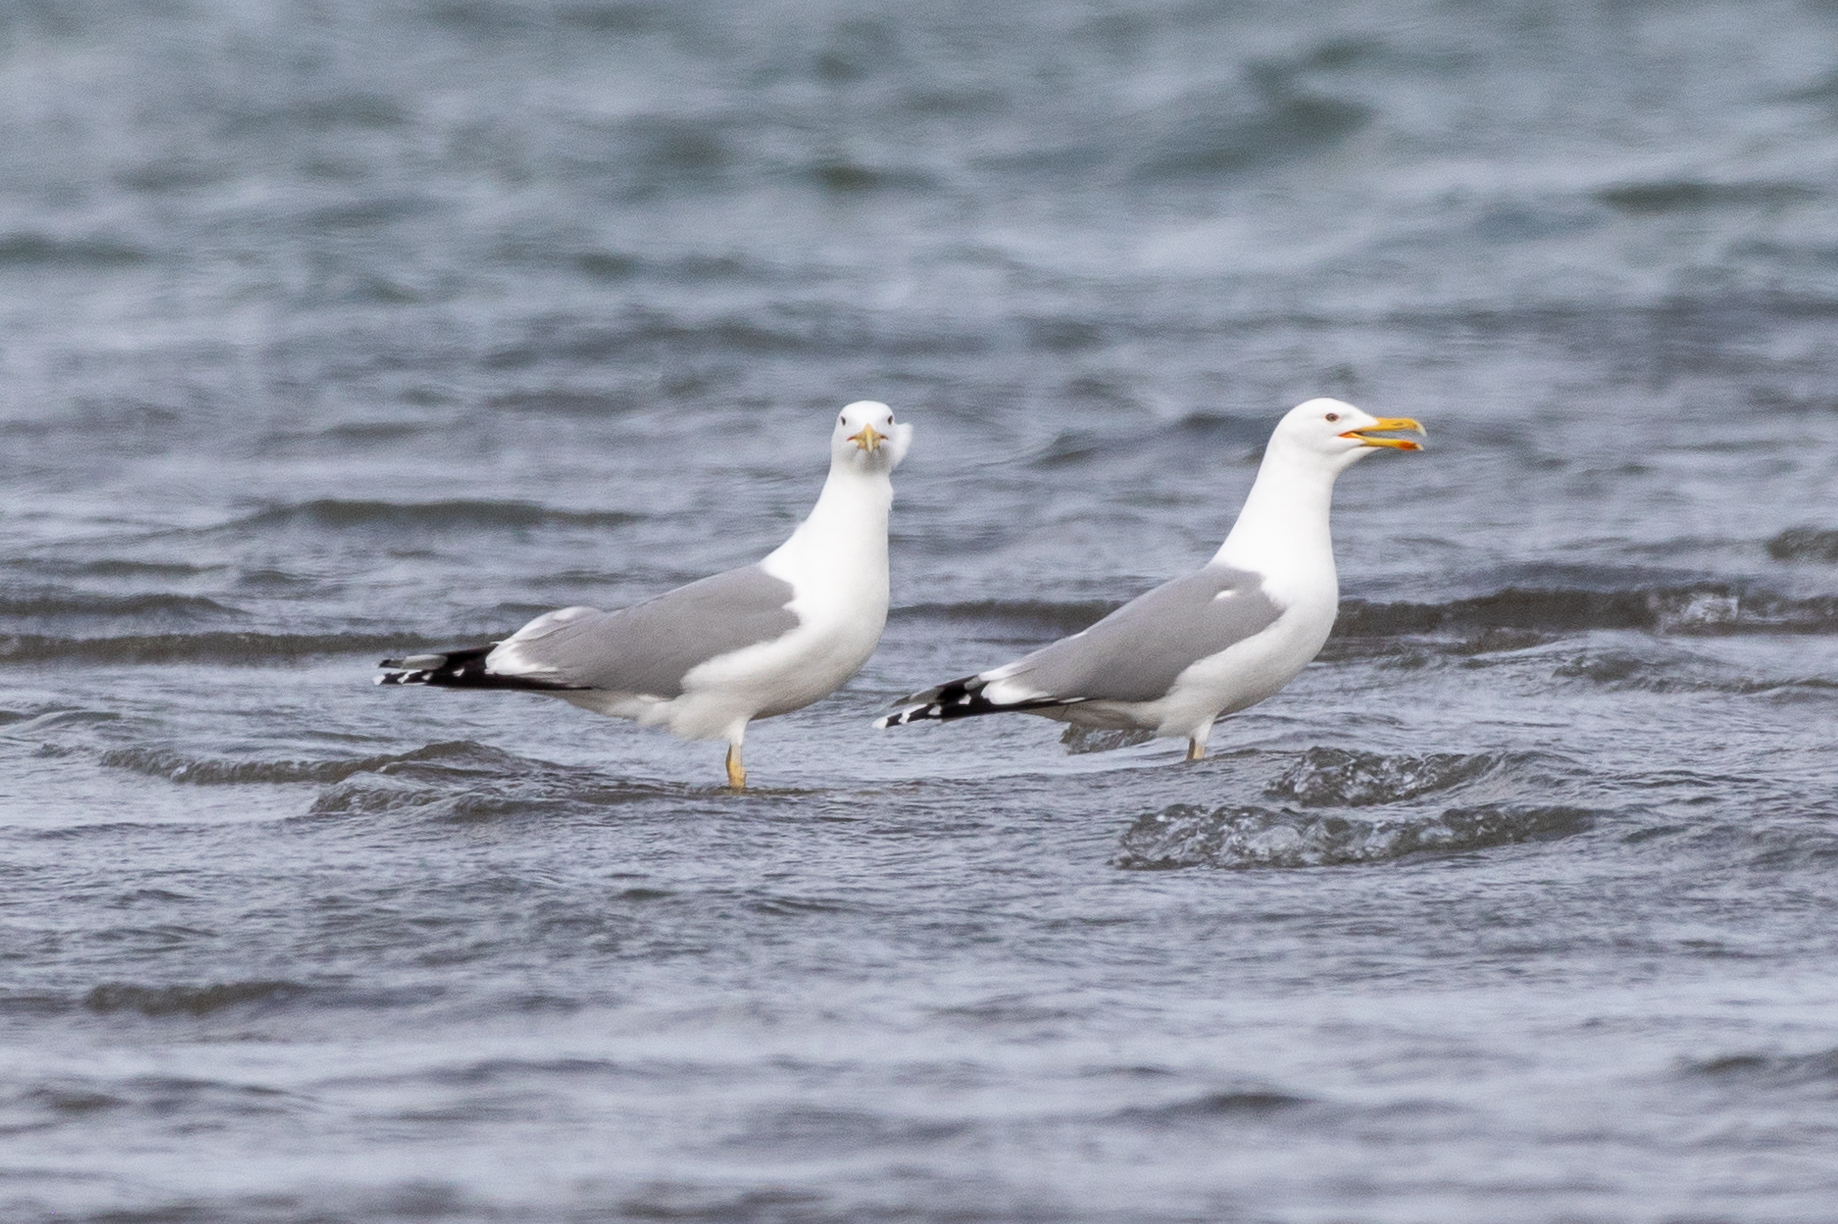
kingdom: Animalia
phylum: Chordata
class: Aves
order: Charadriiformes
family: Laridae
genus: Larus
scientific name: Larus cachinnans
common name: Caspian gull
